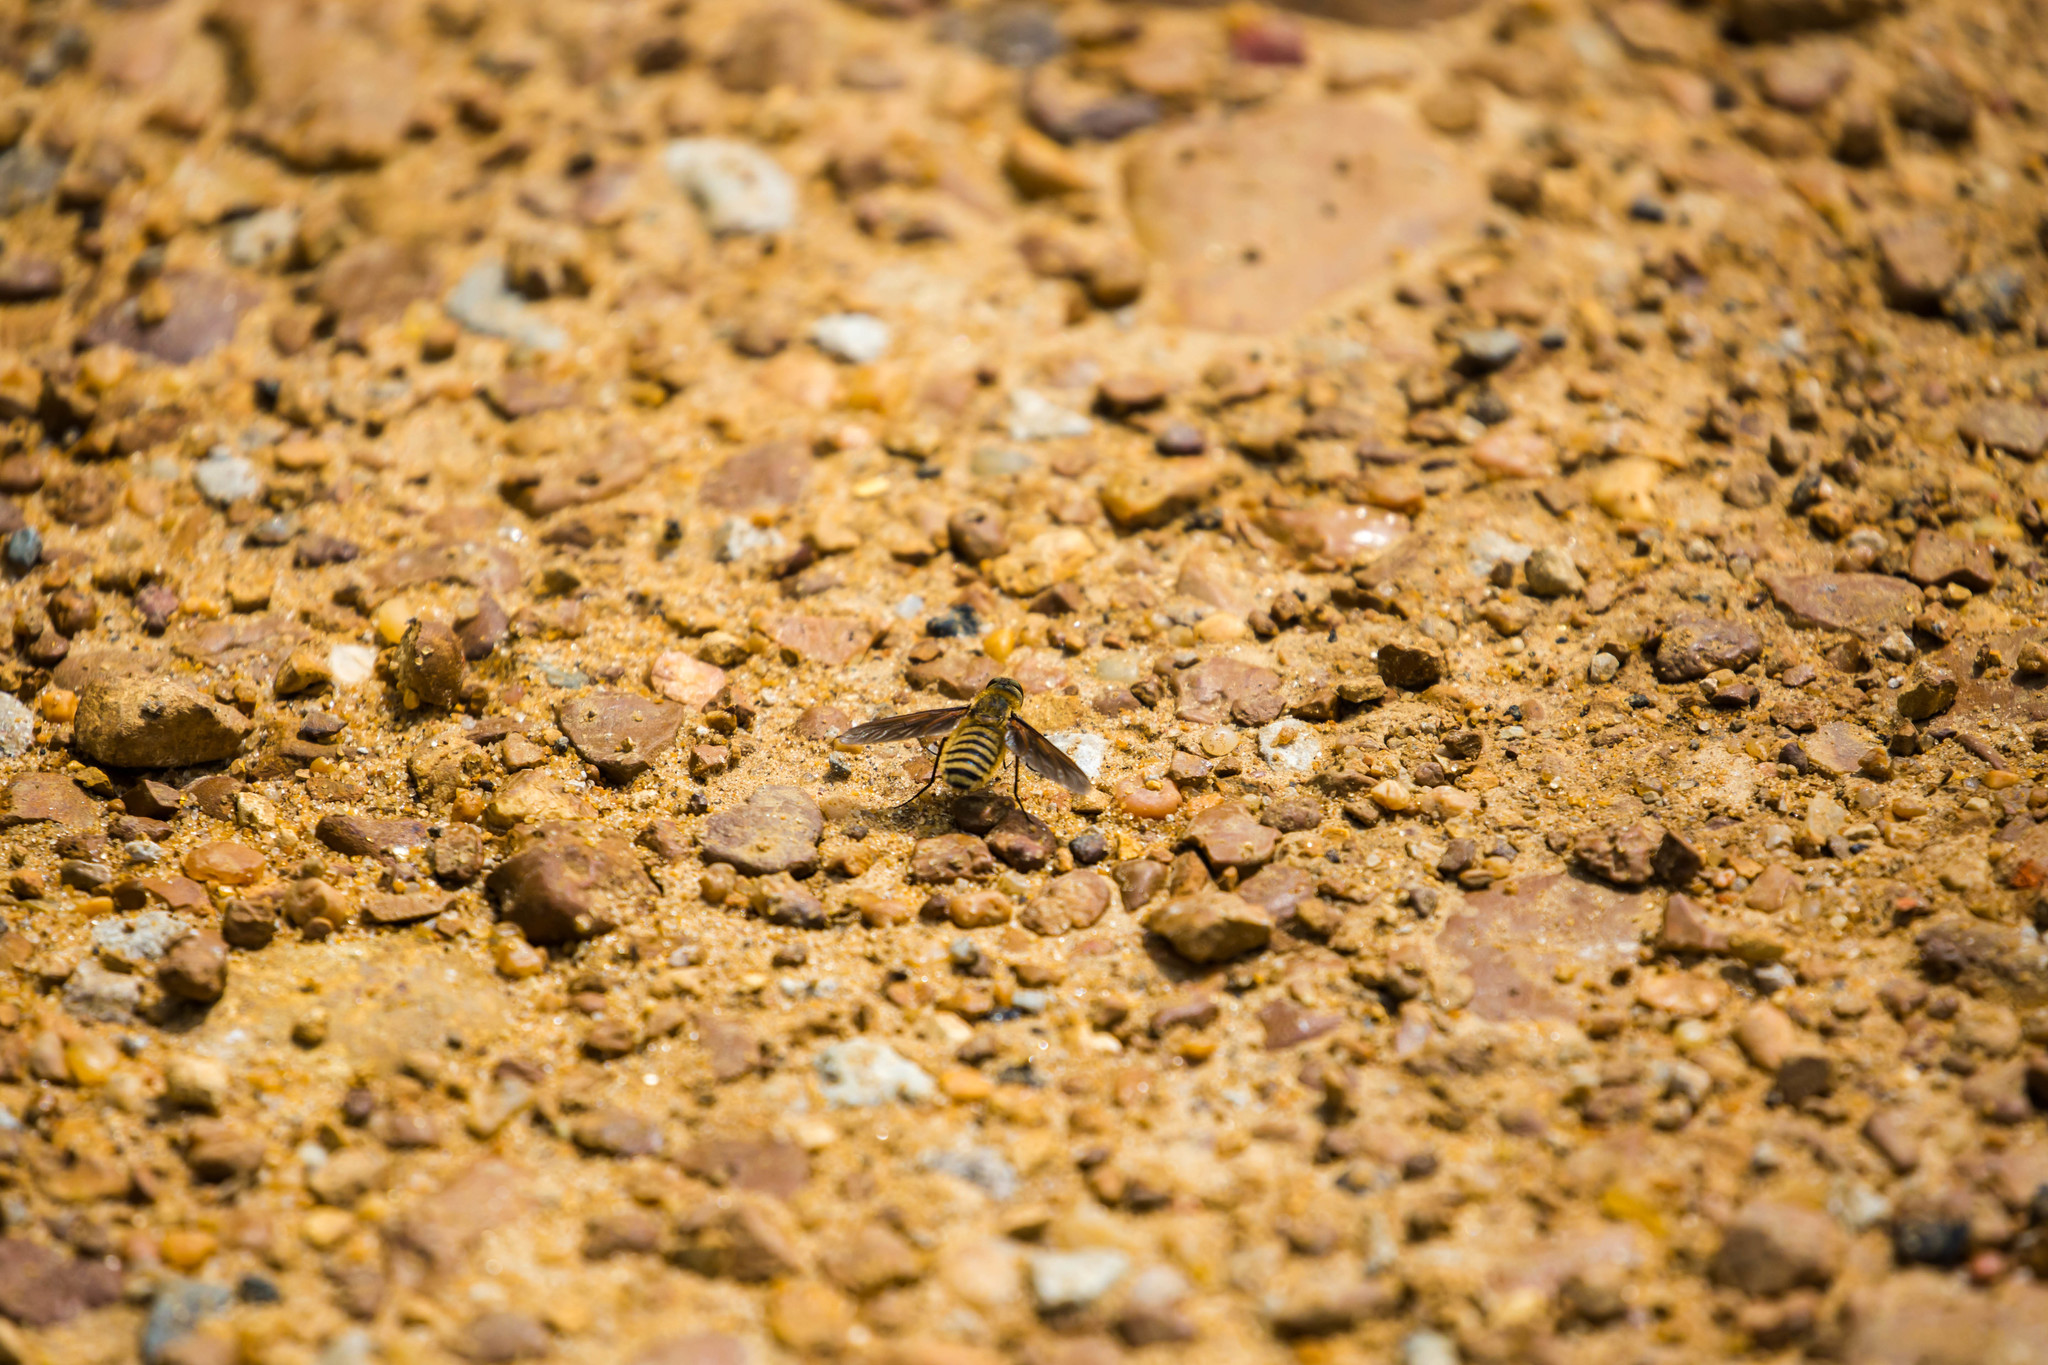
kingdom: Animalia
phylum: Arthropoda
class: Insecta
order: Diptera
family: Bombyliidae
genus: Poecilanthrax
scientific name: Poecilanthrax lucifer
